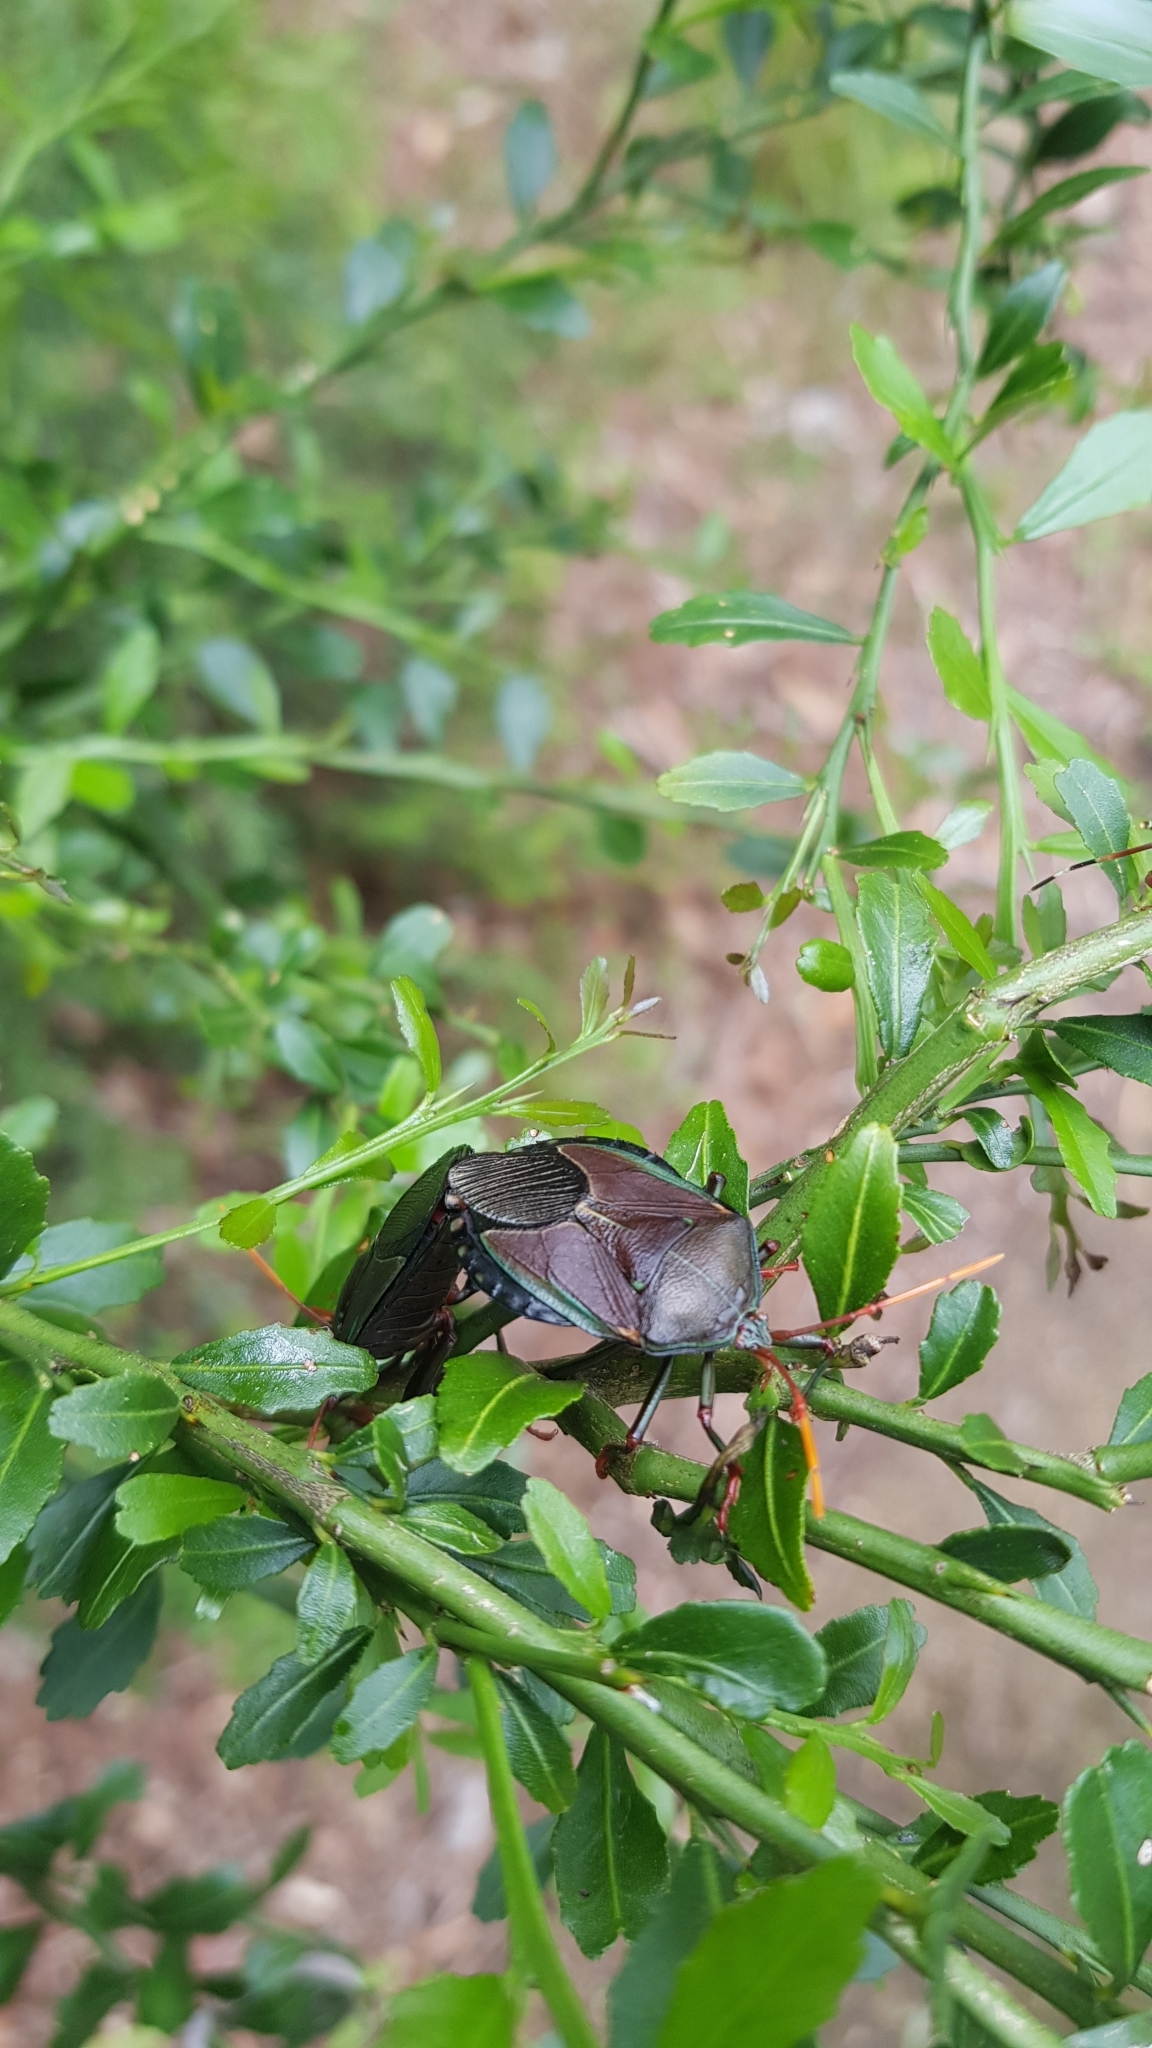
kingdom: Animalia
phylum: Arthropoda
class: Insecta
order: Hemiptera
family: Tessaratomidae
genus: Musgraveia
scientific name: Musgraveia sulciventris
